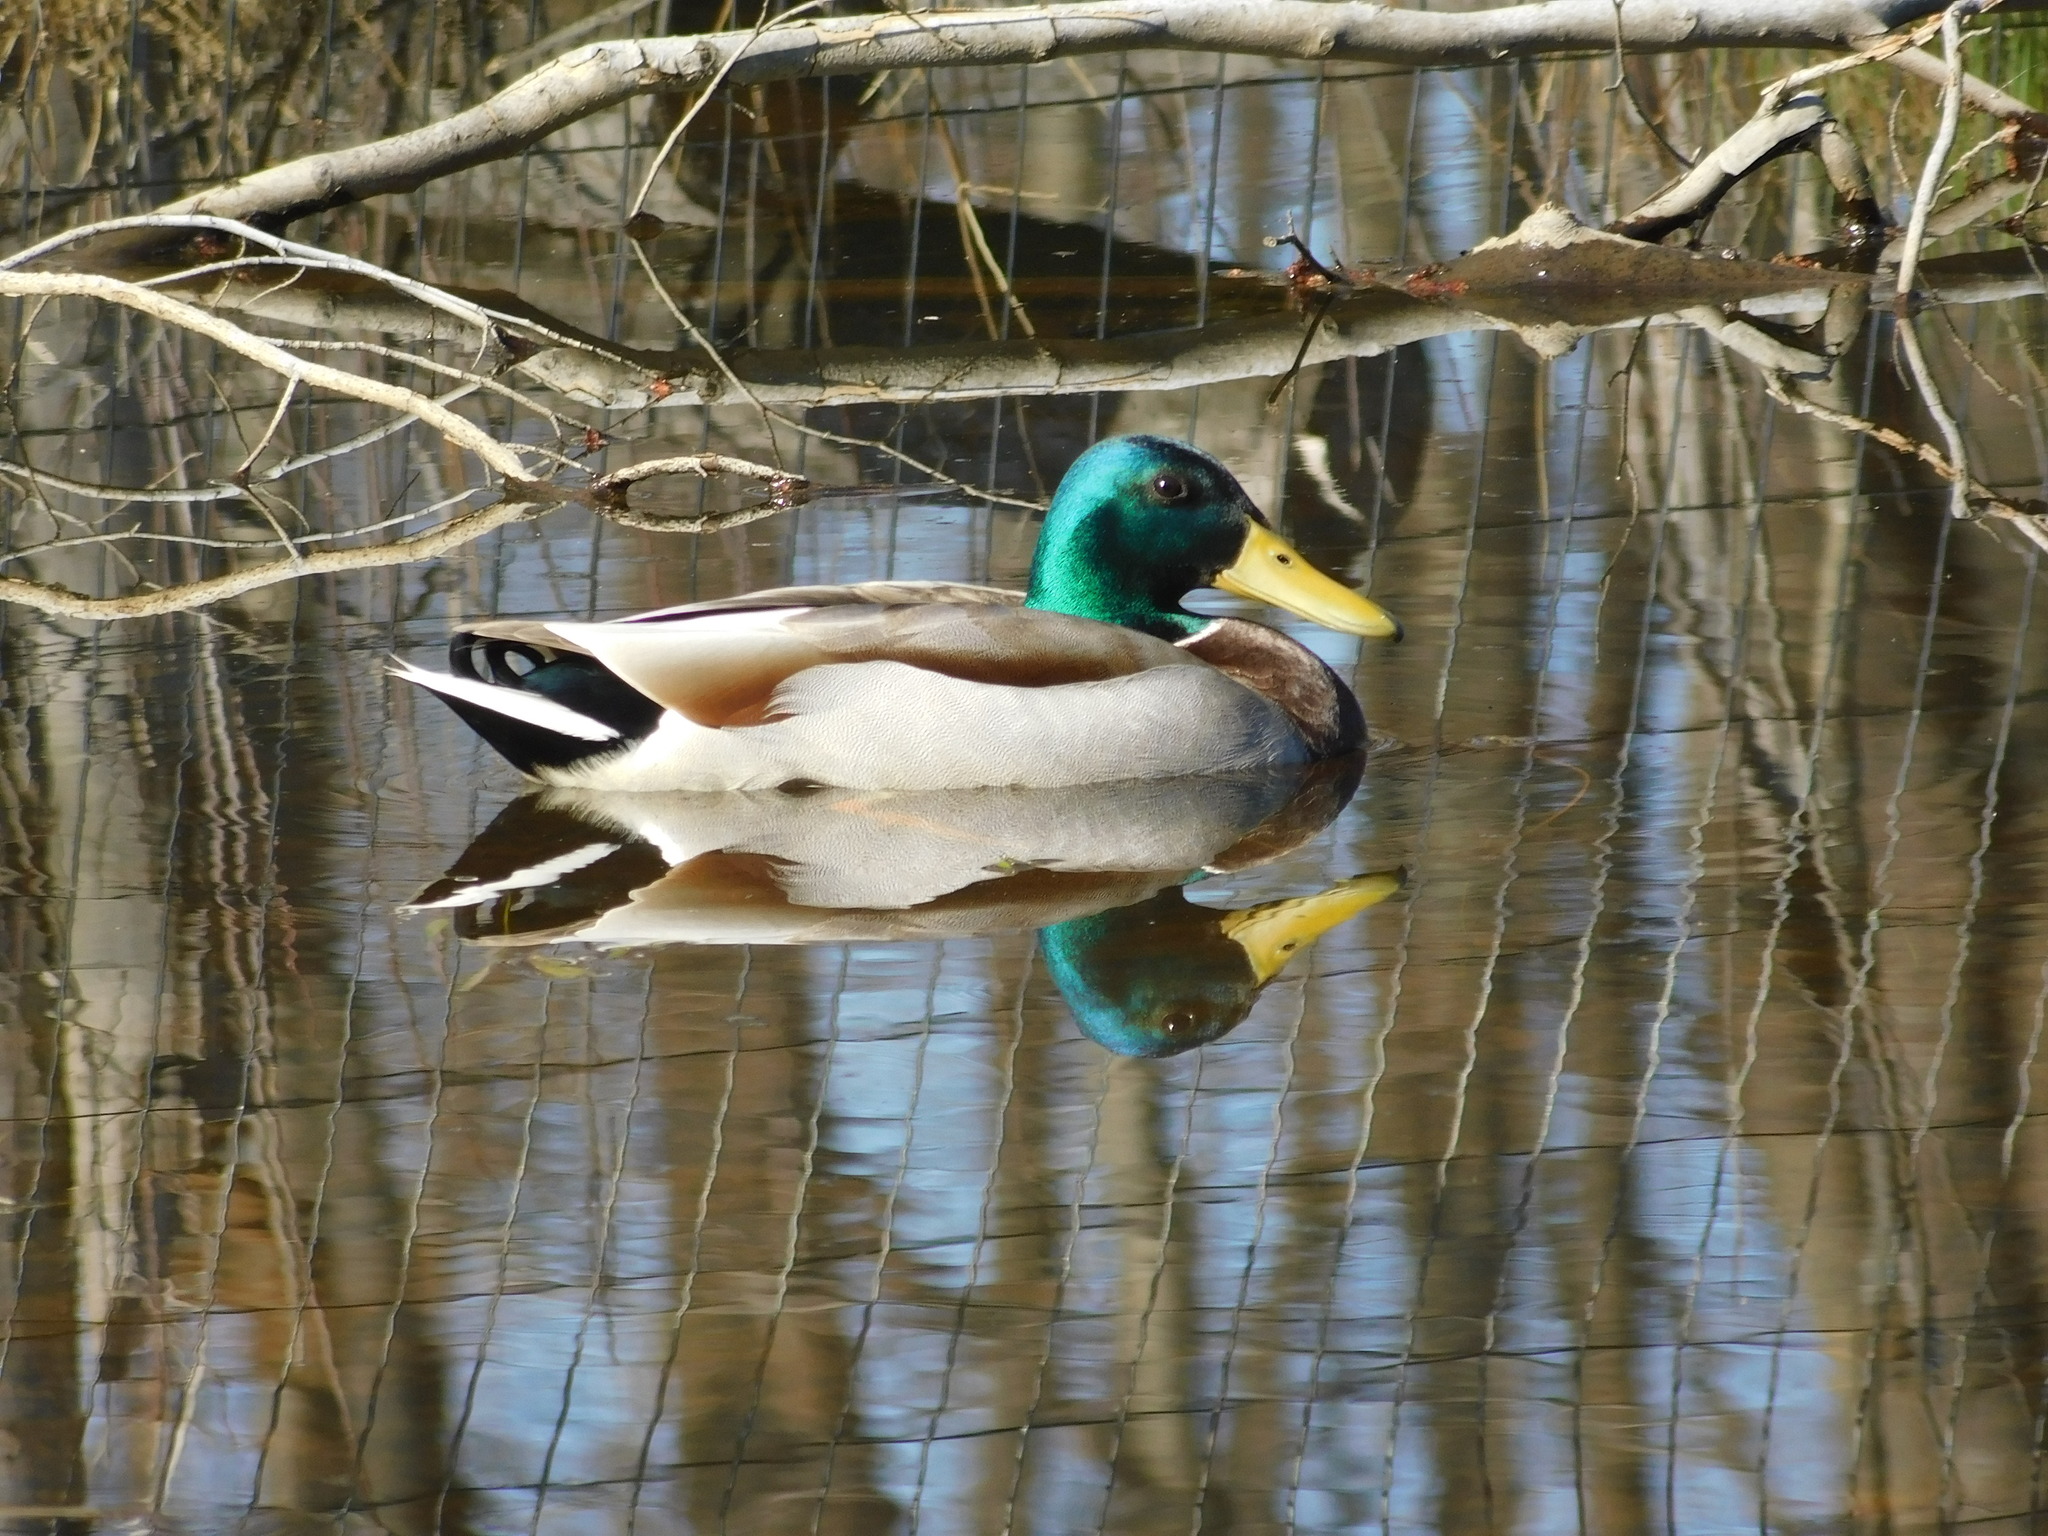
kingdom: Animalia
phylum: Chordata
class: Aves
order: Anseriformes
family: Anatidae
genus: Anas
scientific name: Anas platyrhynchos
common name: Mallard
